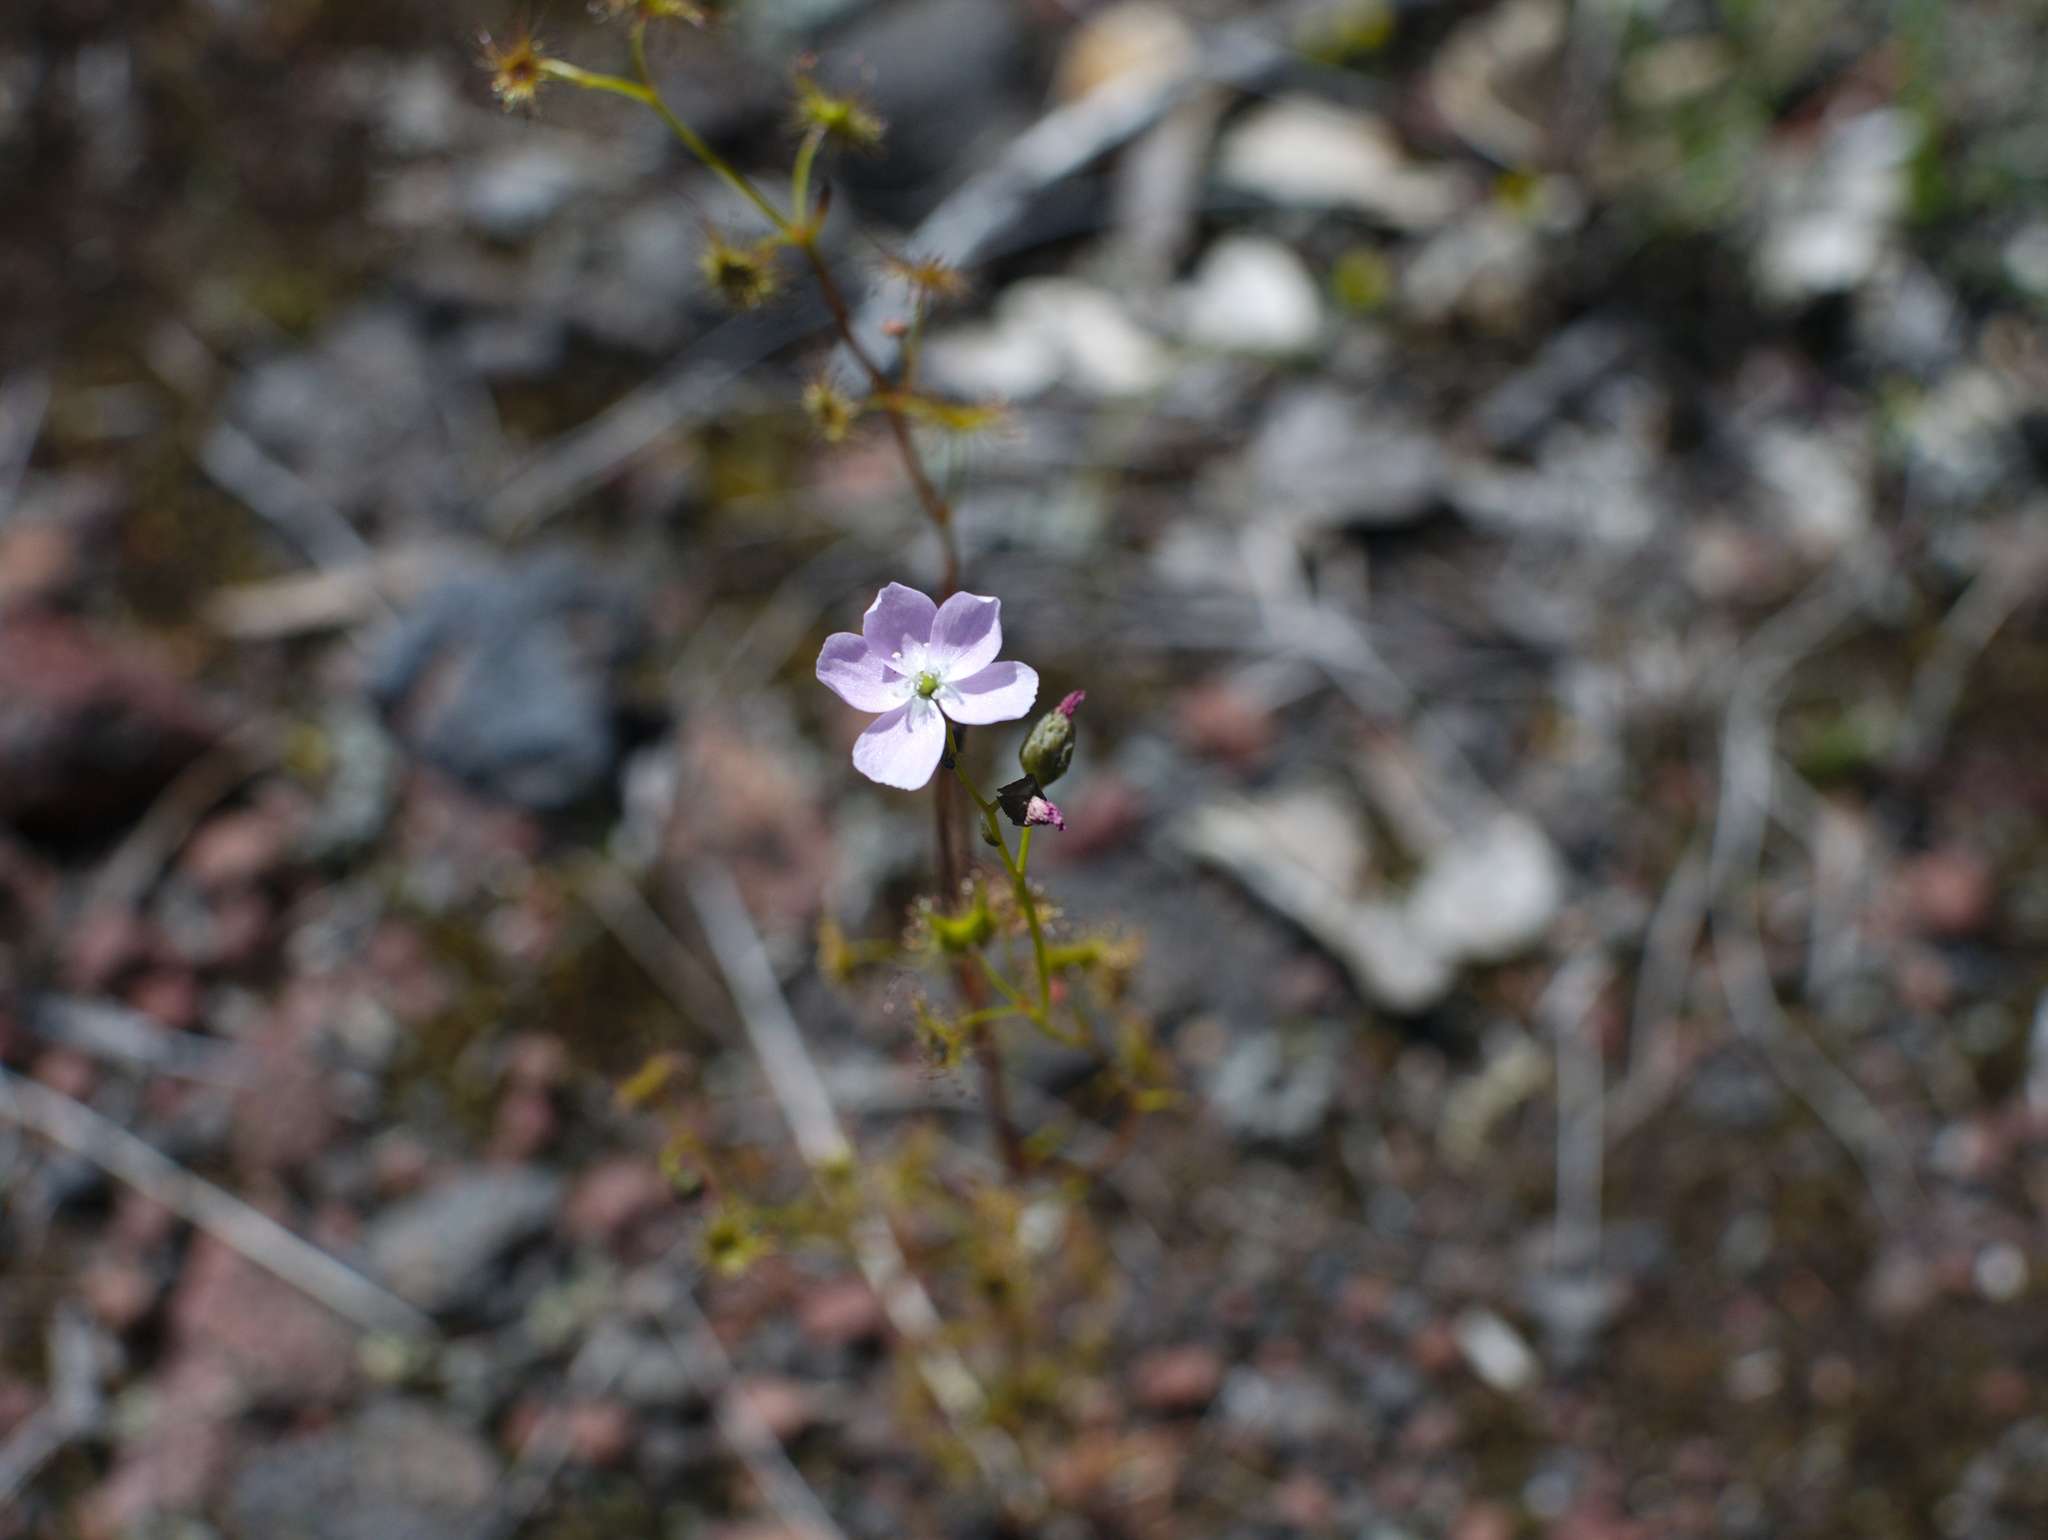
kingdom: Plantae
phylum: Tracheophyta
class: Magnoliopsida
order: Caryophyllales
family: Droseraceae
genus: Drosera
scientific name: Drosera peltata
